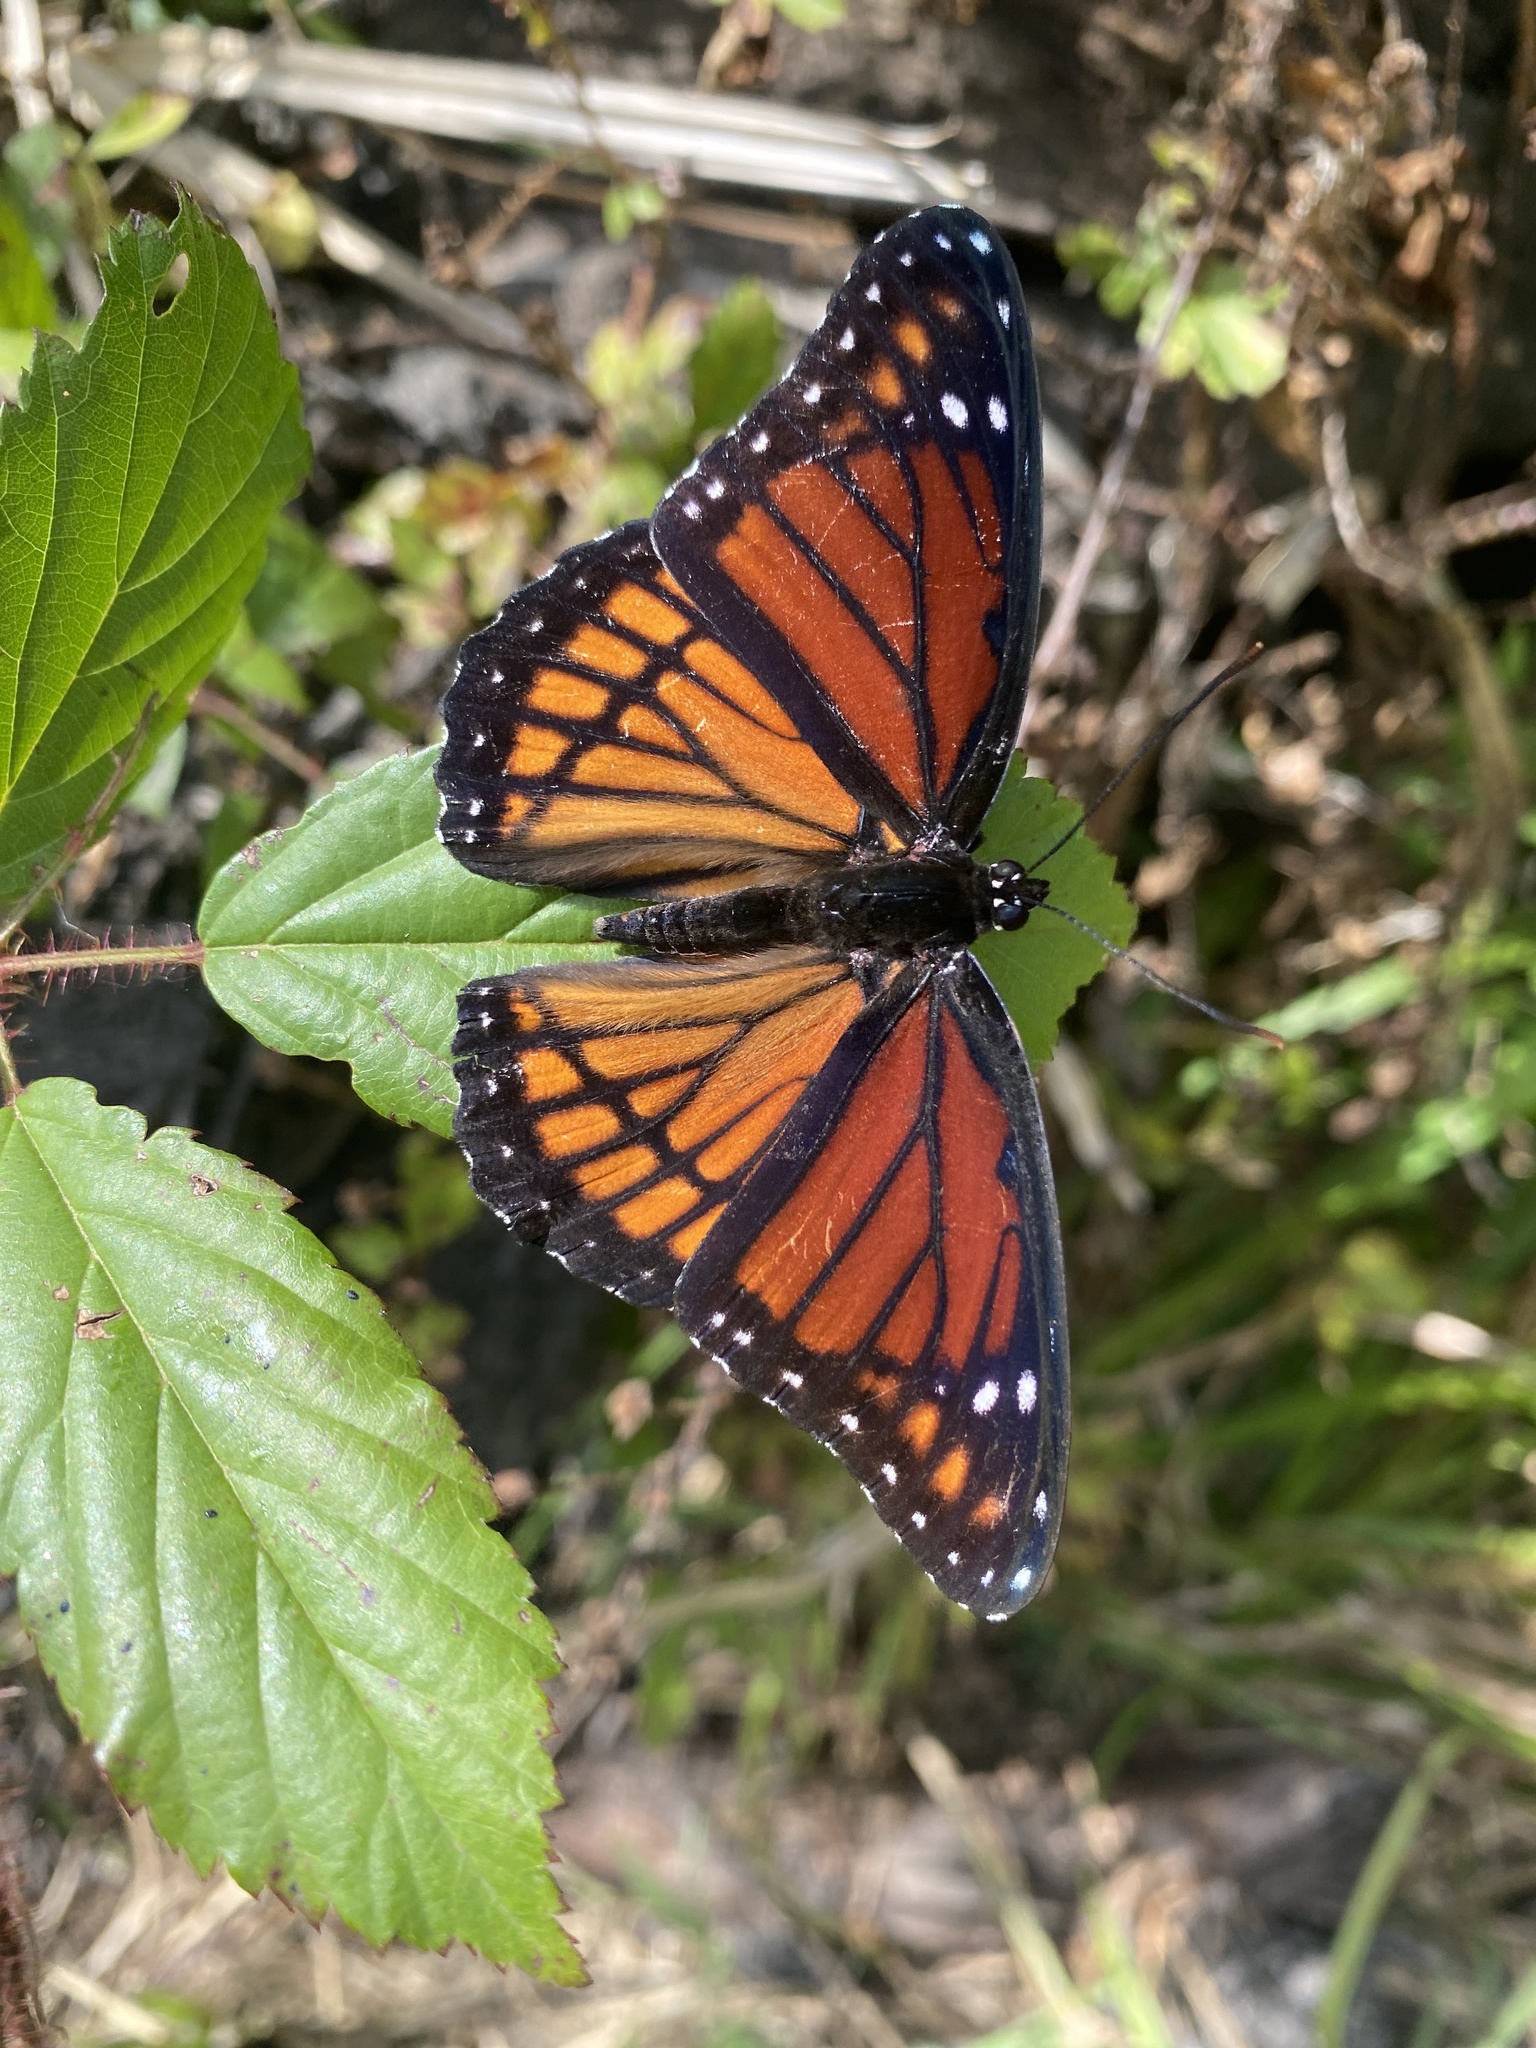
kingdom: Animalia
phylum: Arthropoda
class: Insecta
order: Lepidoptera
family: Nymphalidae
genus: Limenitis
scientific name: Limenitis archippus
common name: Viceroy
